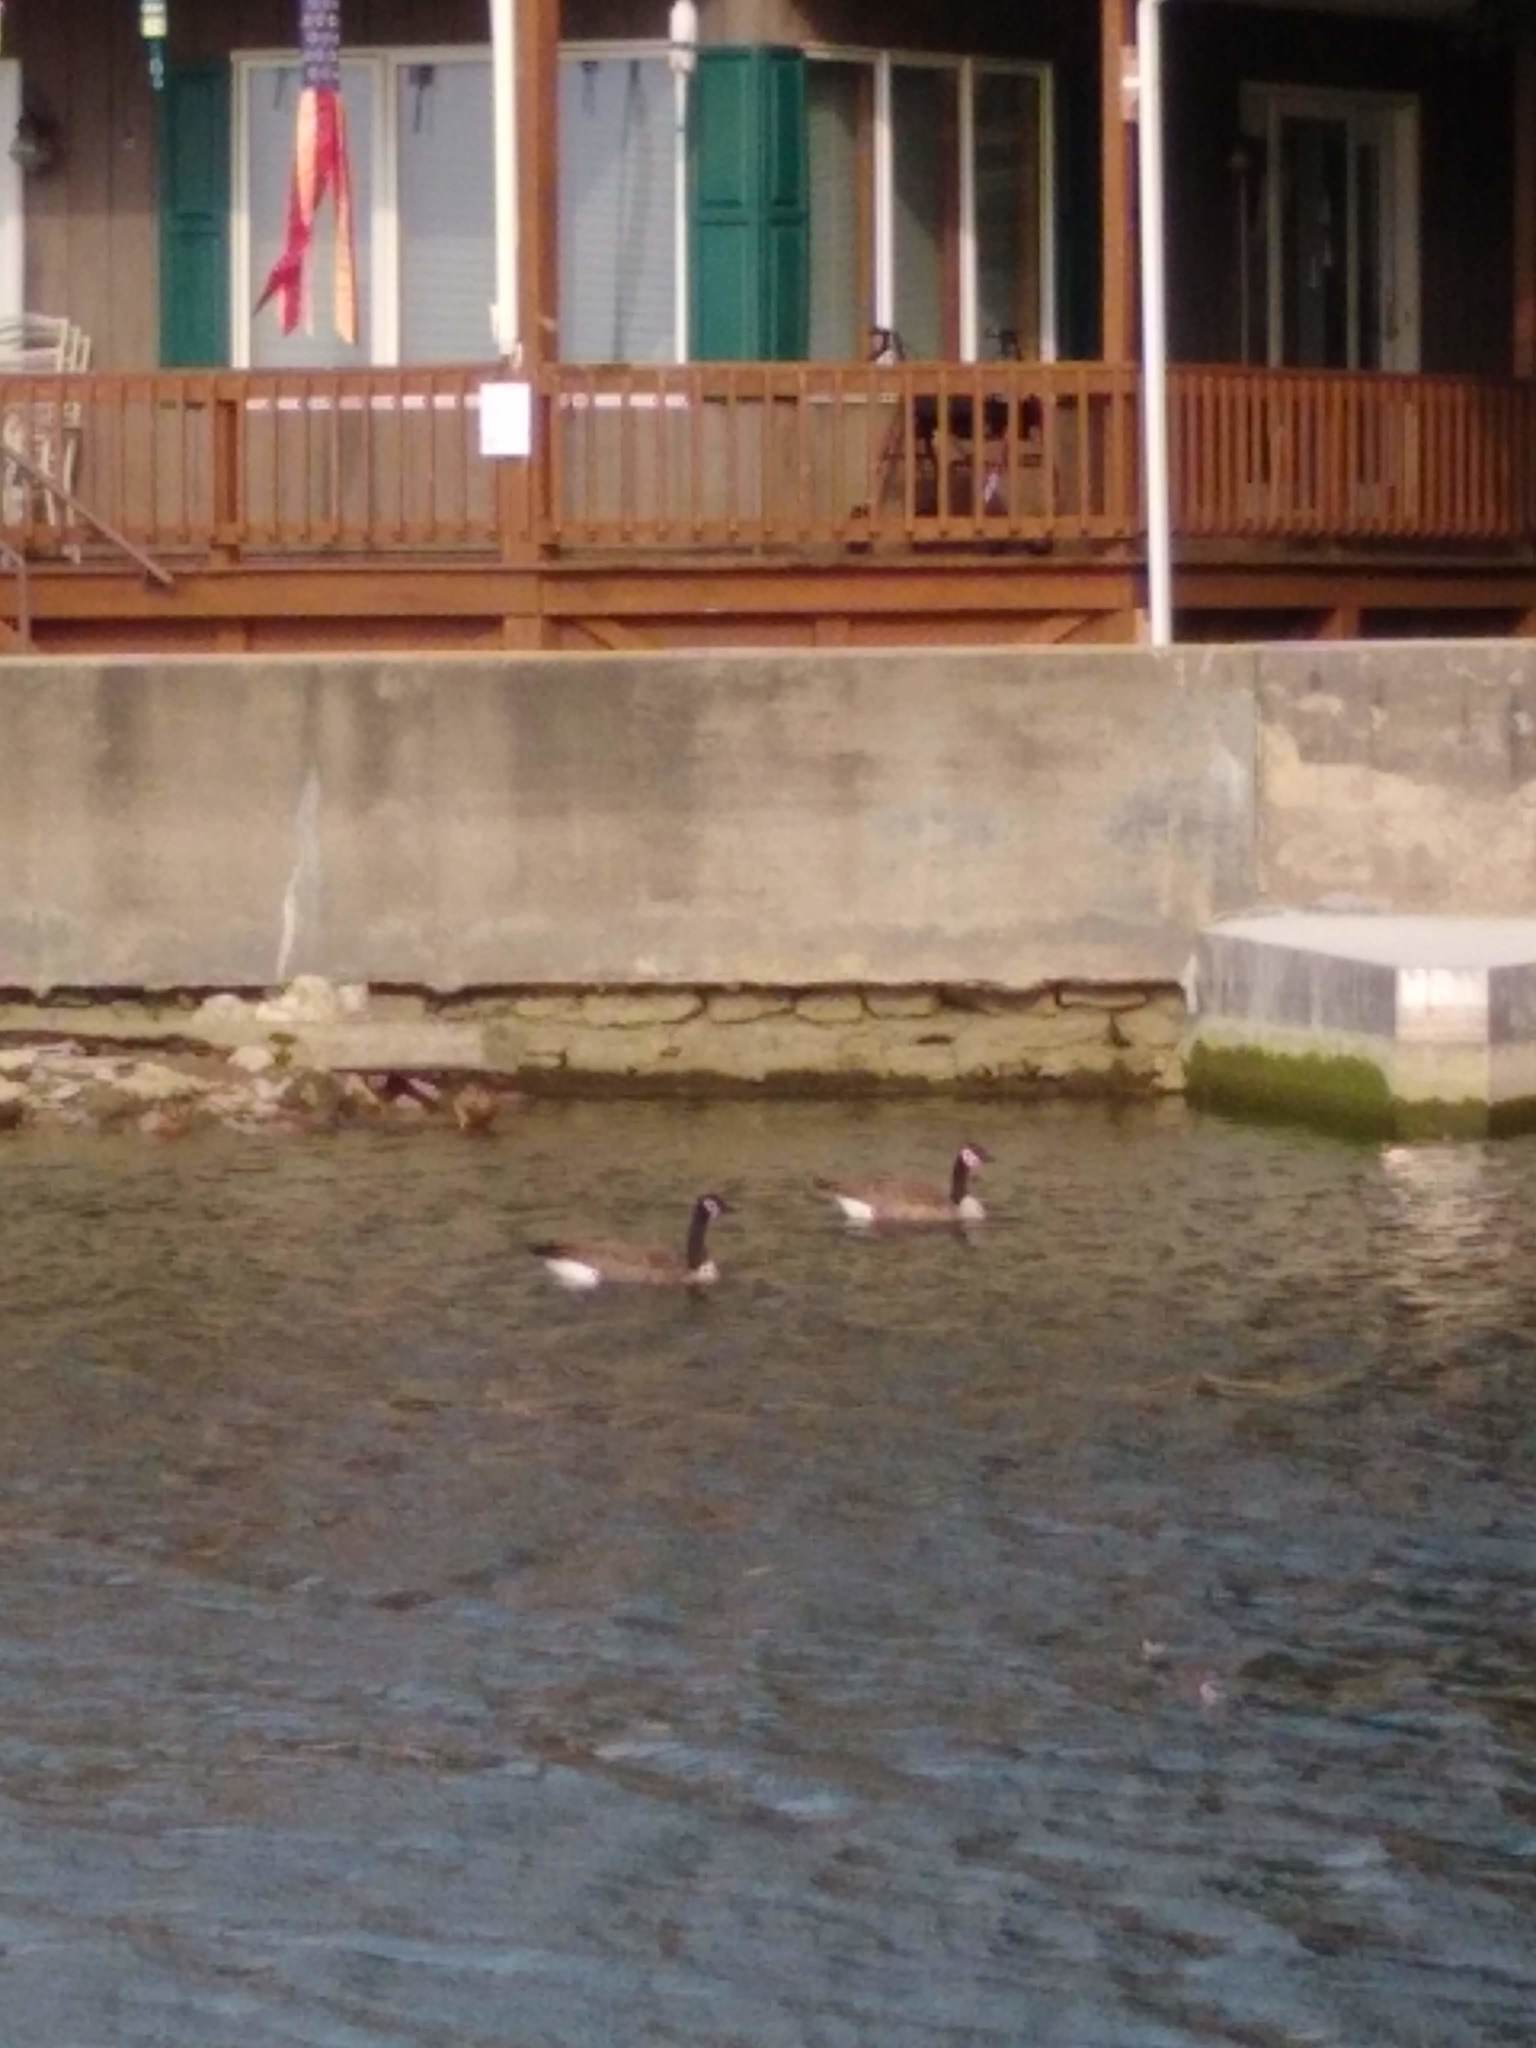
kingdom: Animalia
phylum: Chordata
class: Aves
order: Anseriformes
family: Anatidae
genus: Branta
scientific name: Branta canadensis
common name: Canada goose
